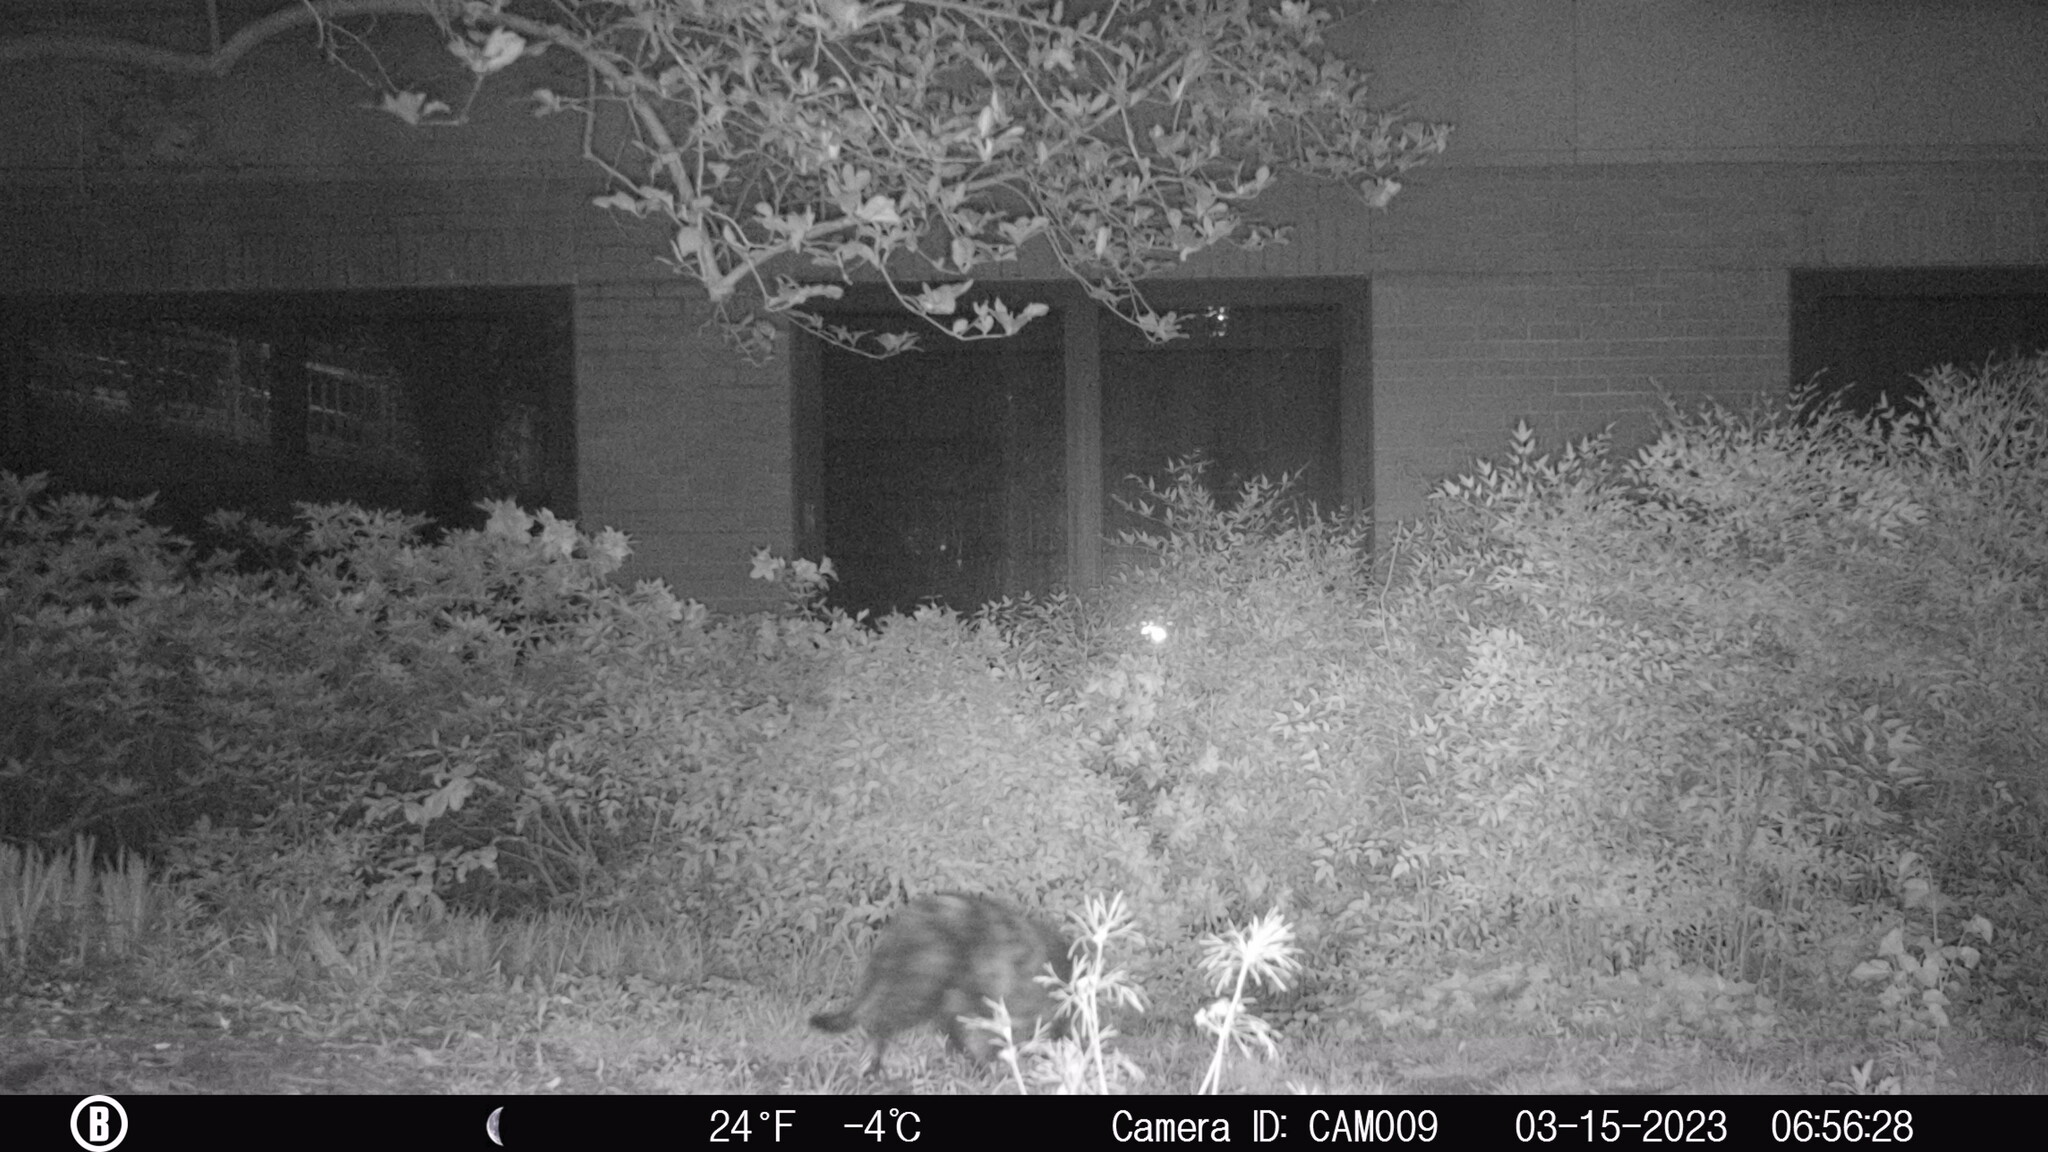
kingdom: Animalia
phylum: Chordata
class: Mammalia
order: Carnivora
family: Felidae
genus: Felis
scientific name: Felis catus
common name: Domestic cat
